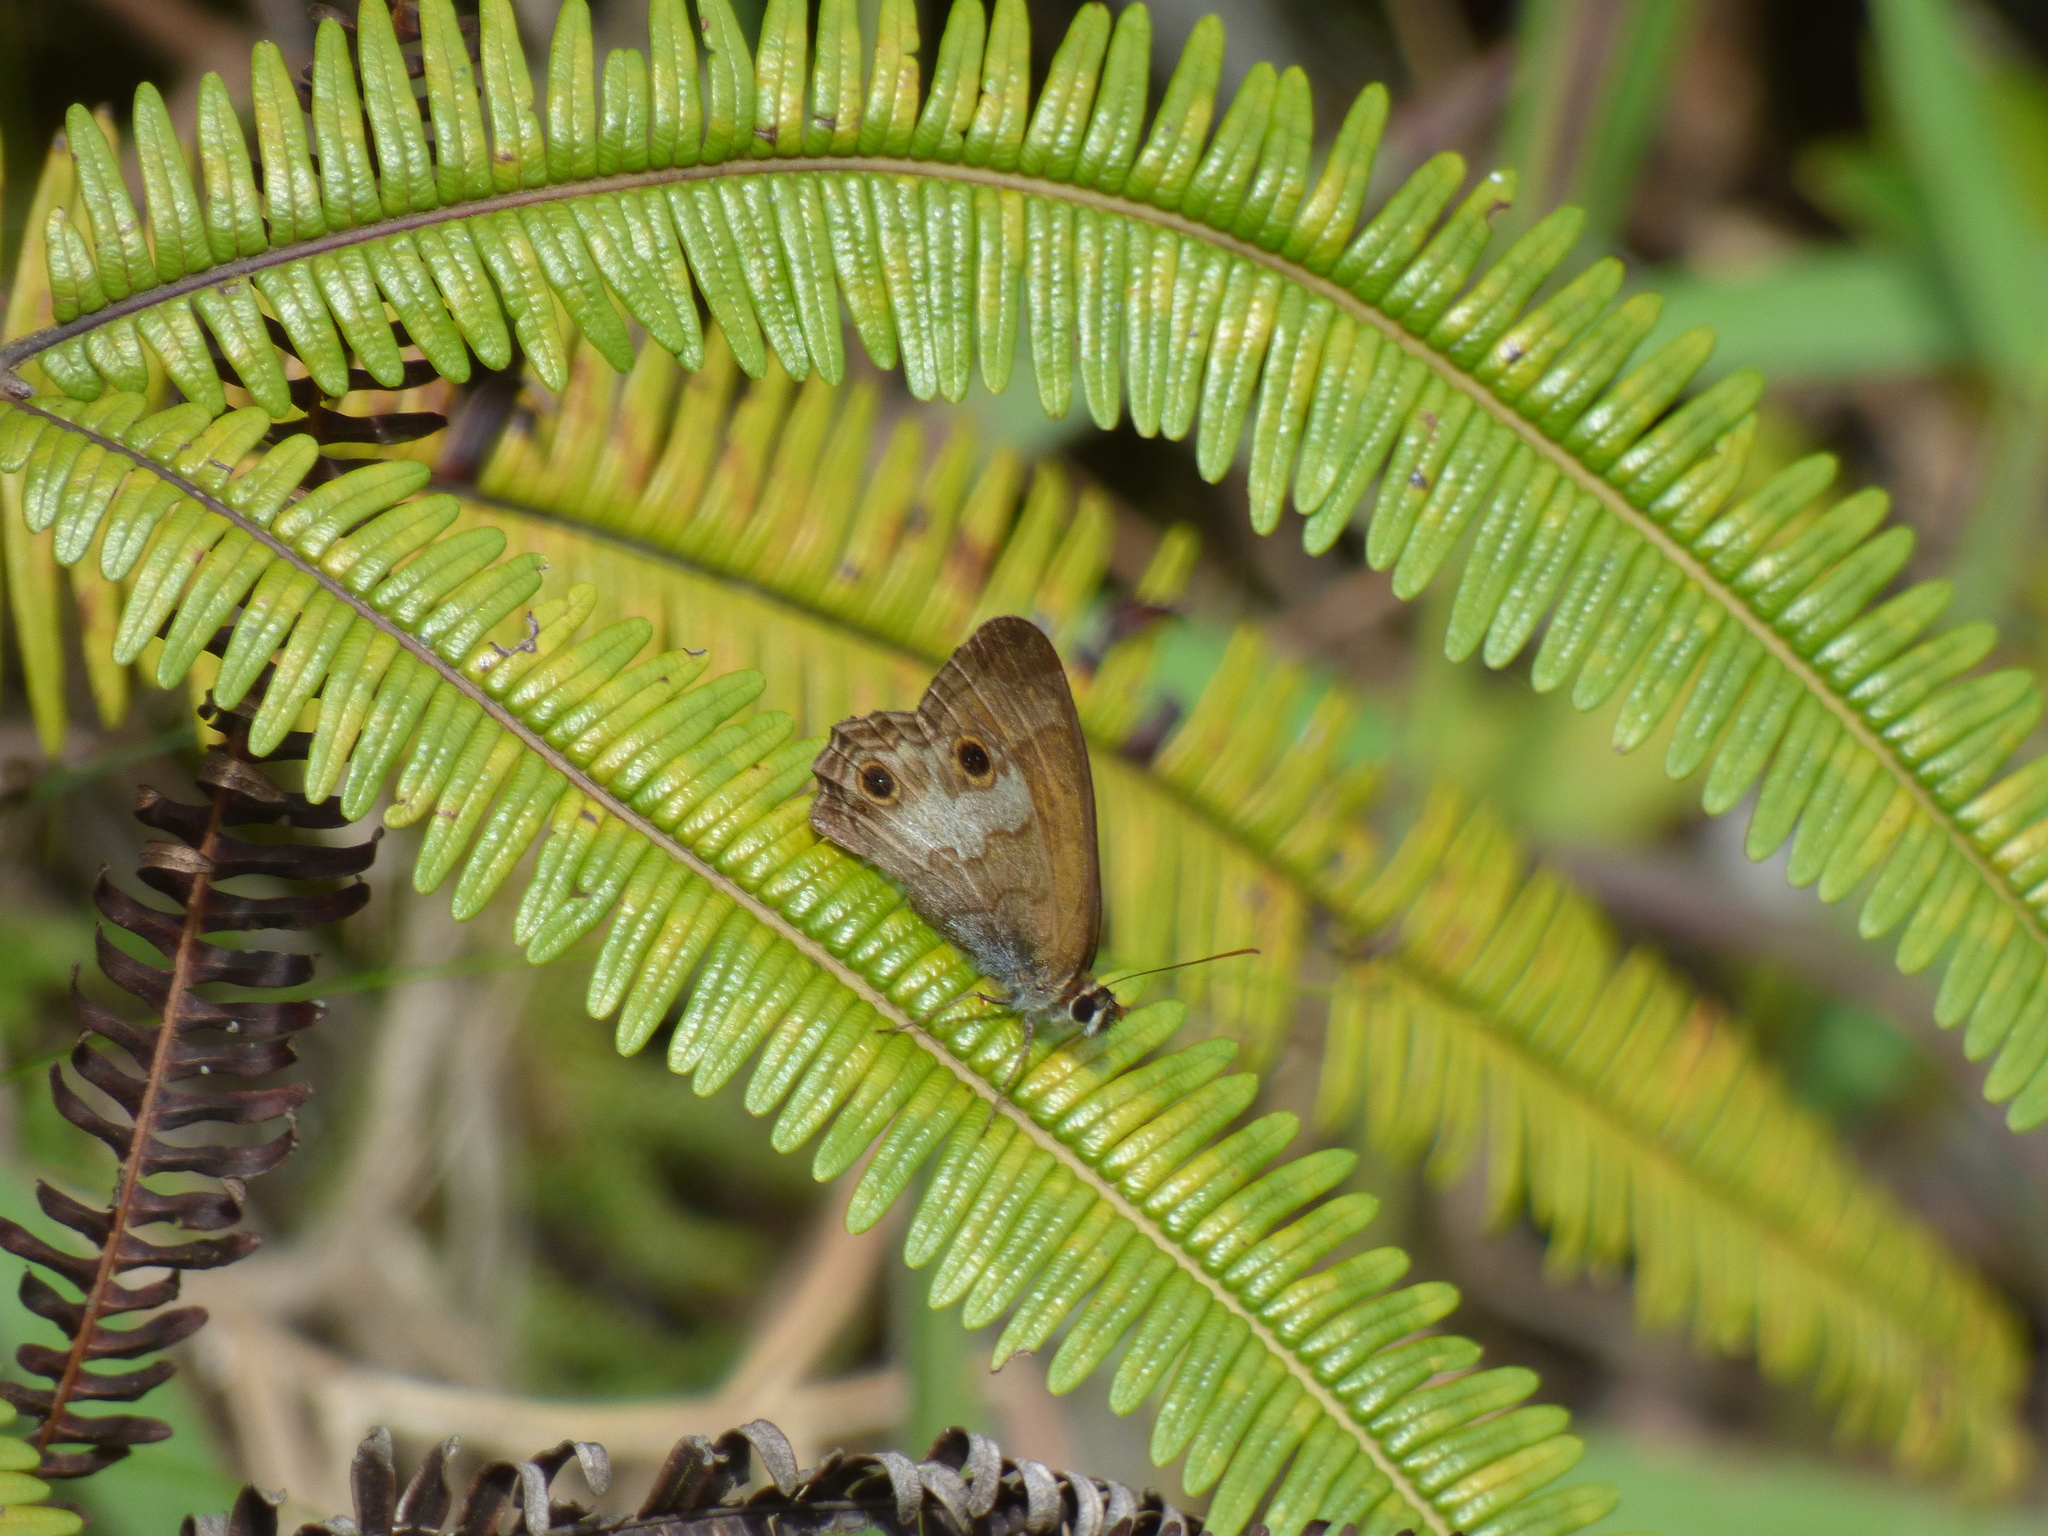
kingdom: Animalia
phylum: Arthropoda
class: Insecta
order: Lepidoptera
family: Nymphalidae
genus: Graphita
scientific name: Graphita griphe
